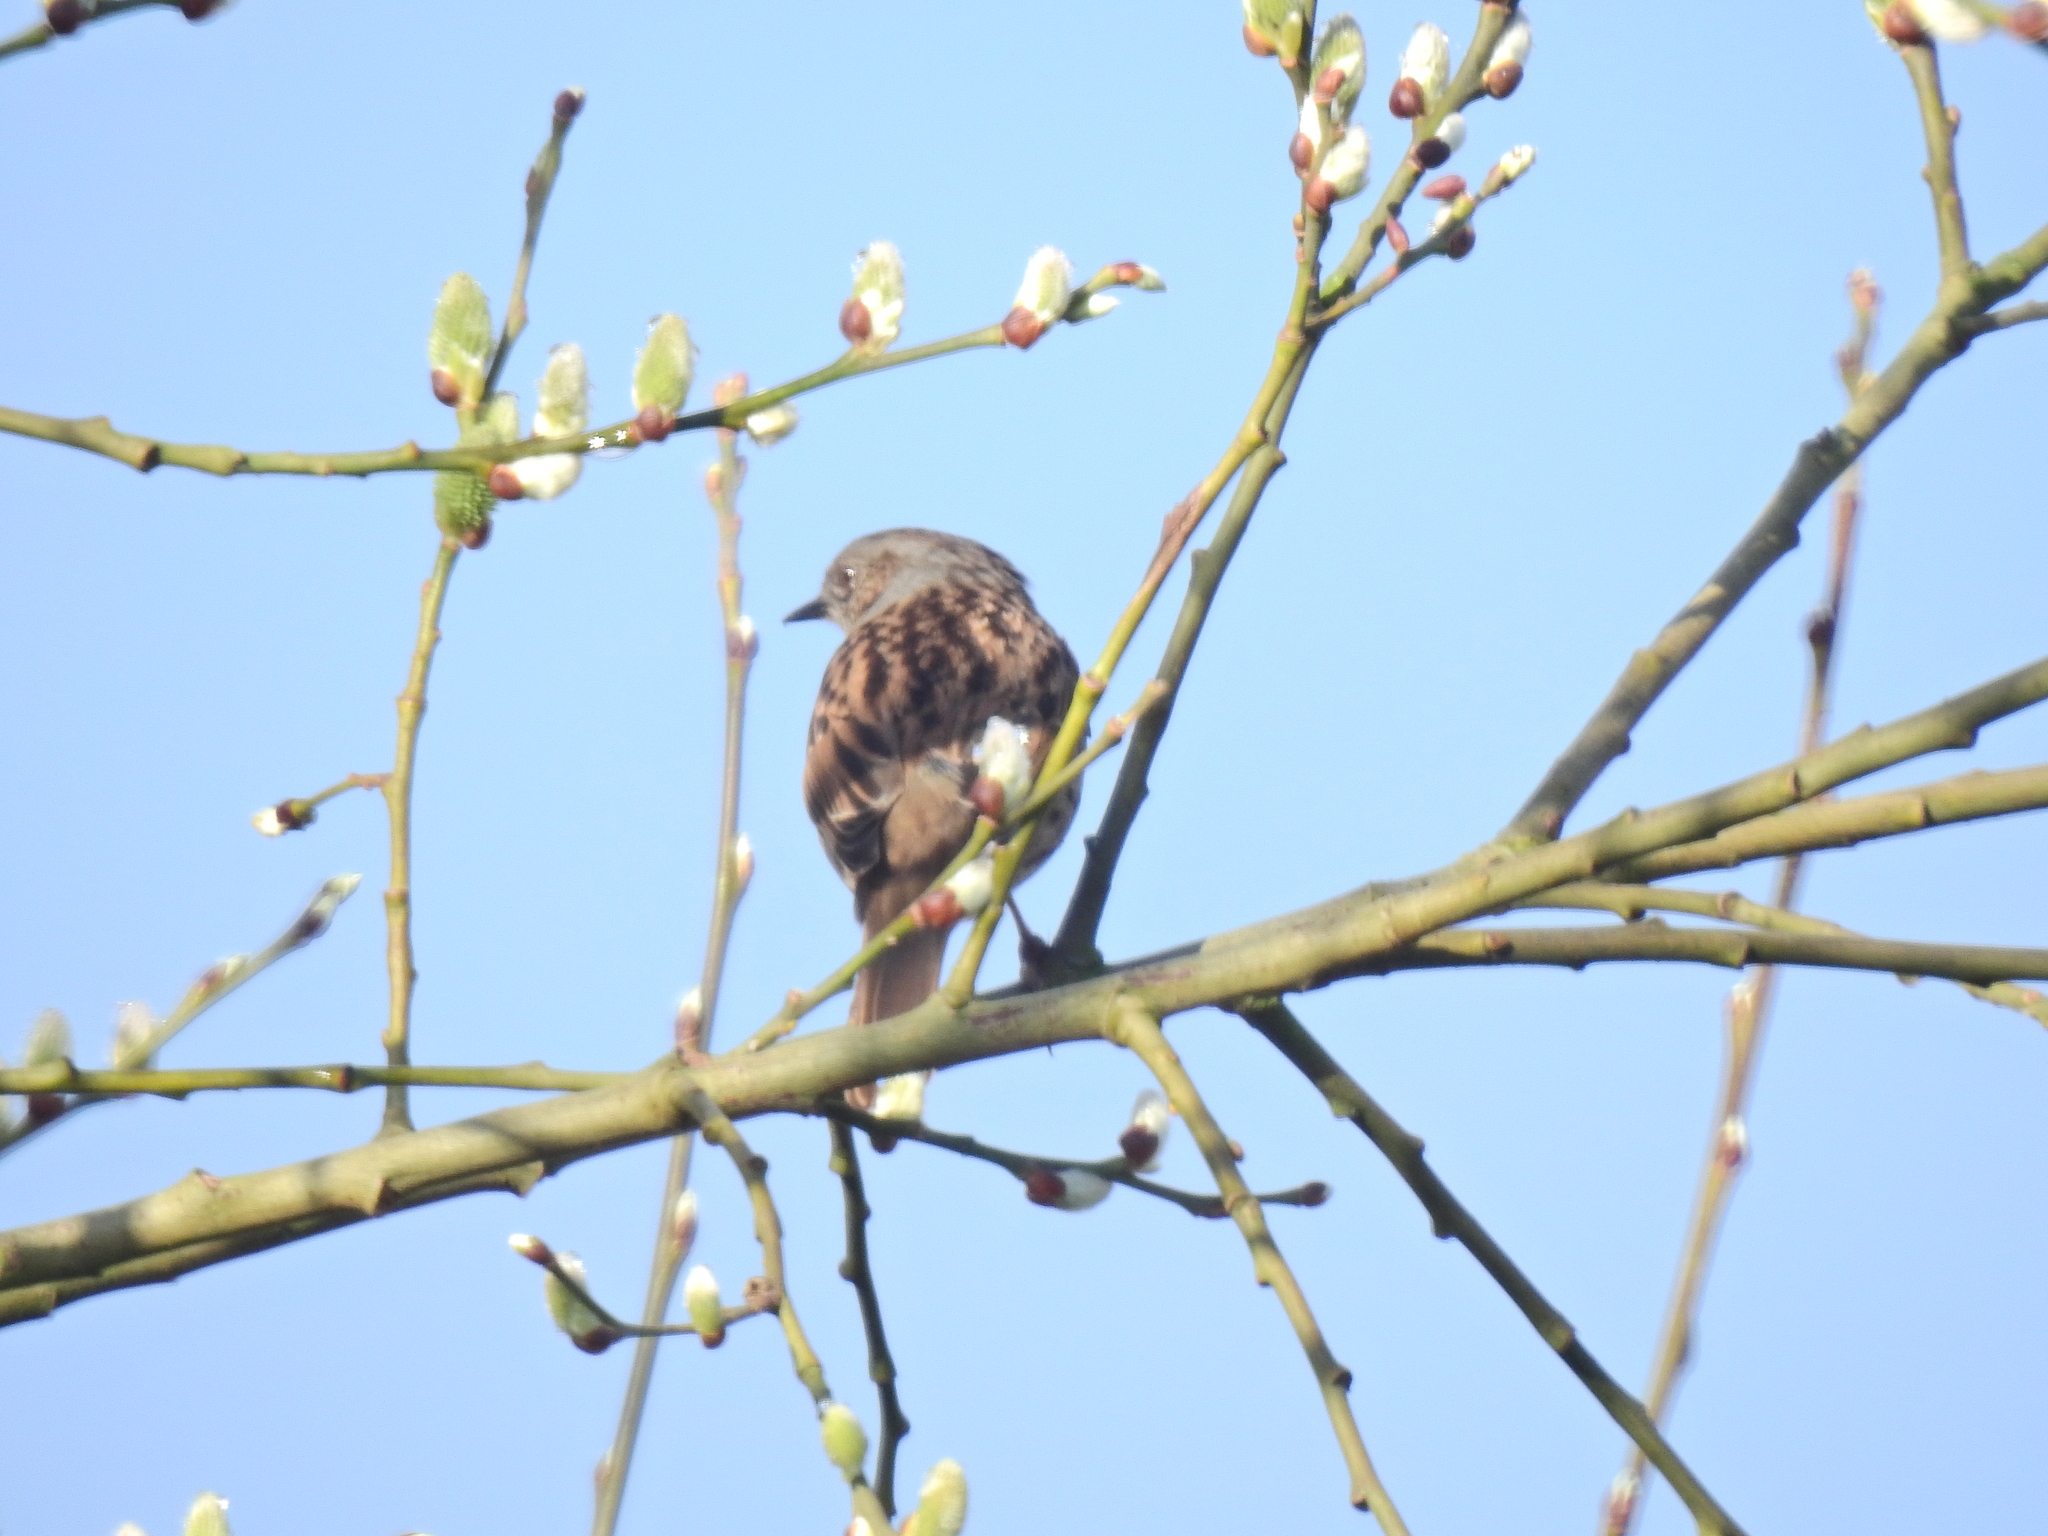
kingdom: Animalia
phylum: Chordata
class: Aves
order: Passeriformes
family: Prunellidae
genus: Prunella
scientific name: Prunella modularis
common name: Dunnock
